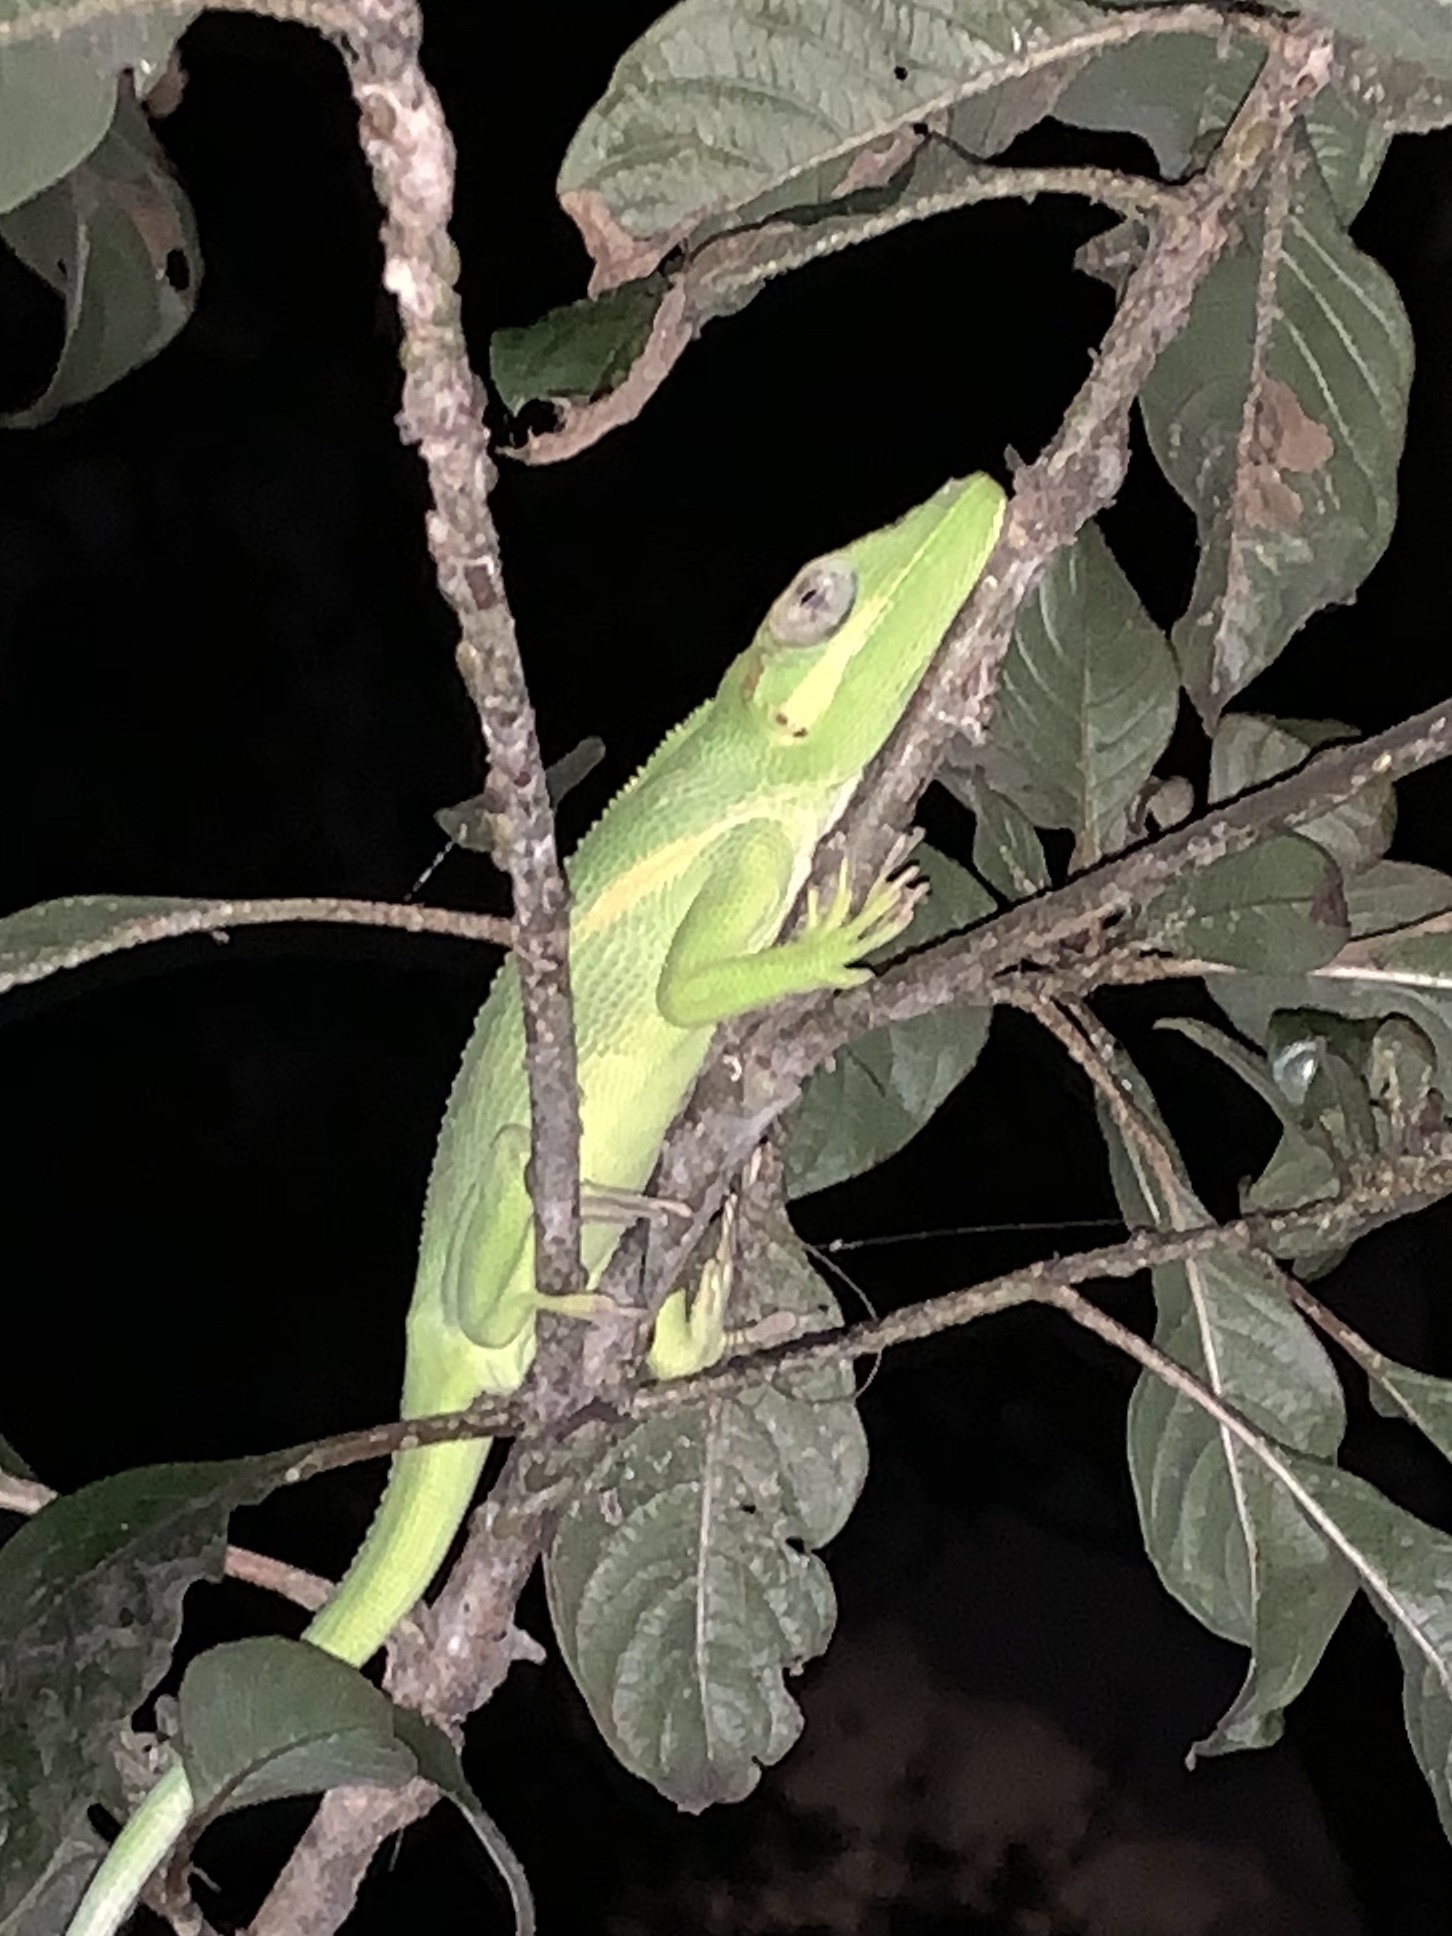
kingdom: Animalia
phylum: Chordata
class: Squamata
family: Dactyloidae
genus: Anolis
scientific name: Anolis equestris
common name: Knight anole
